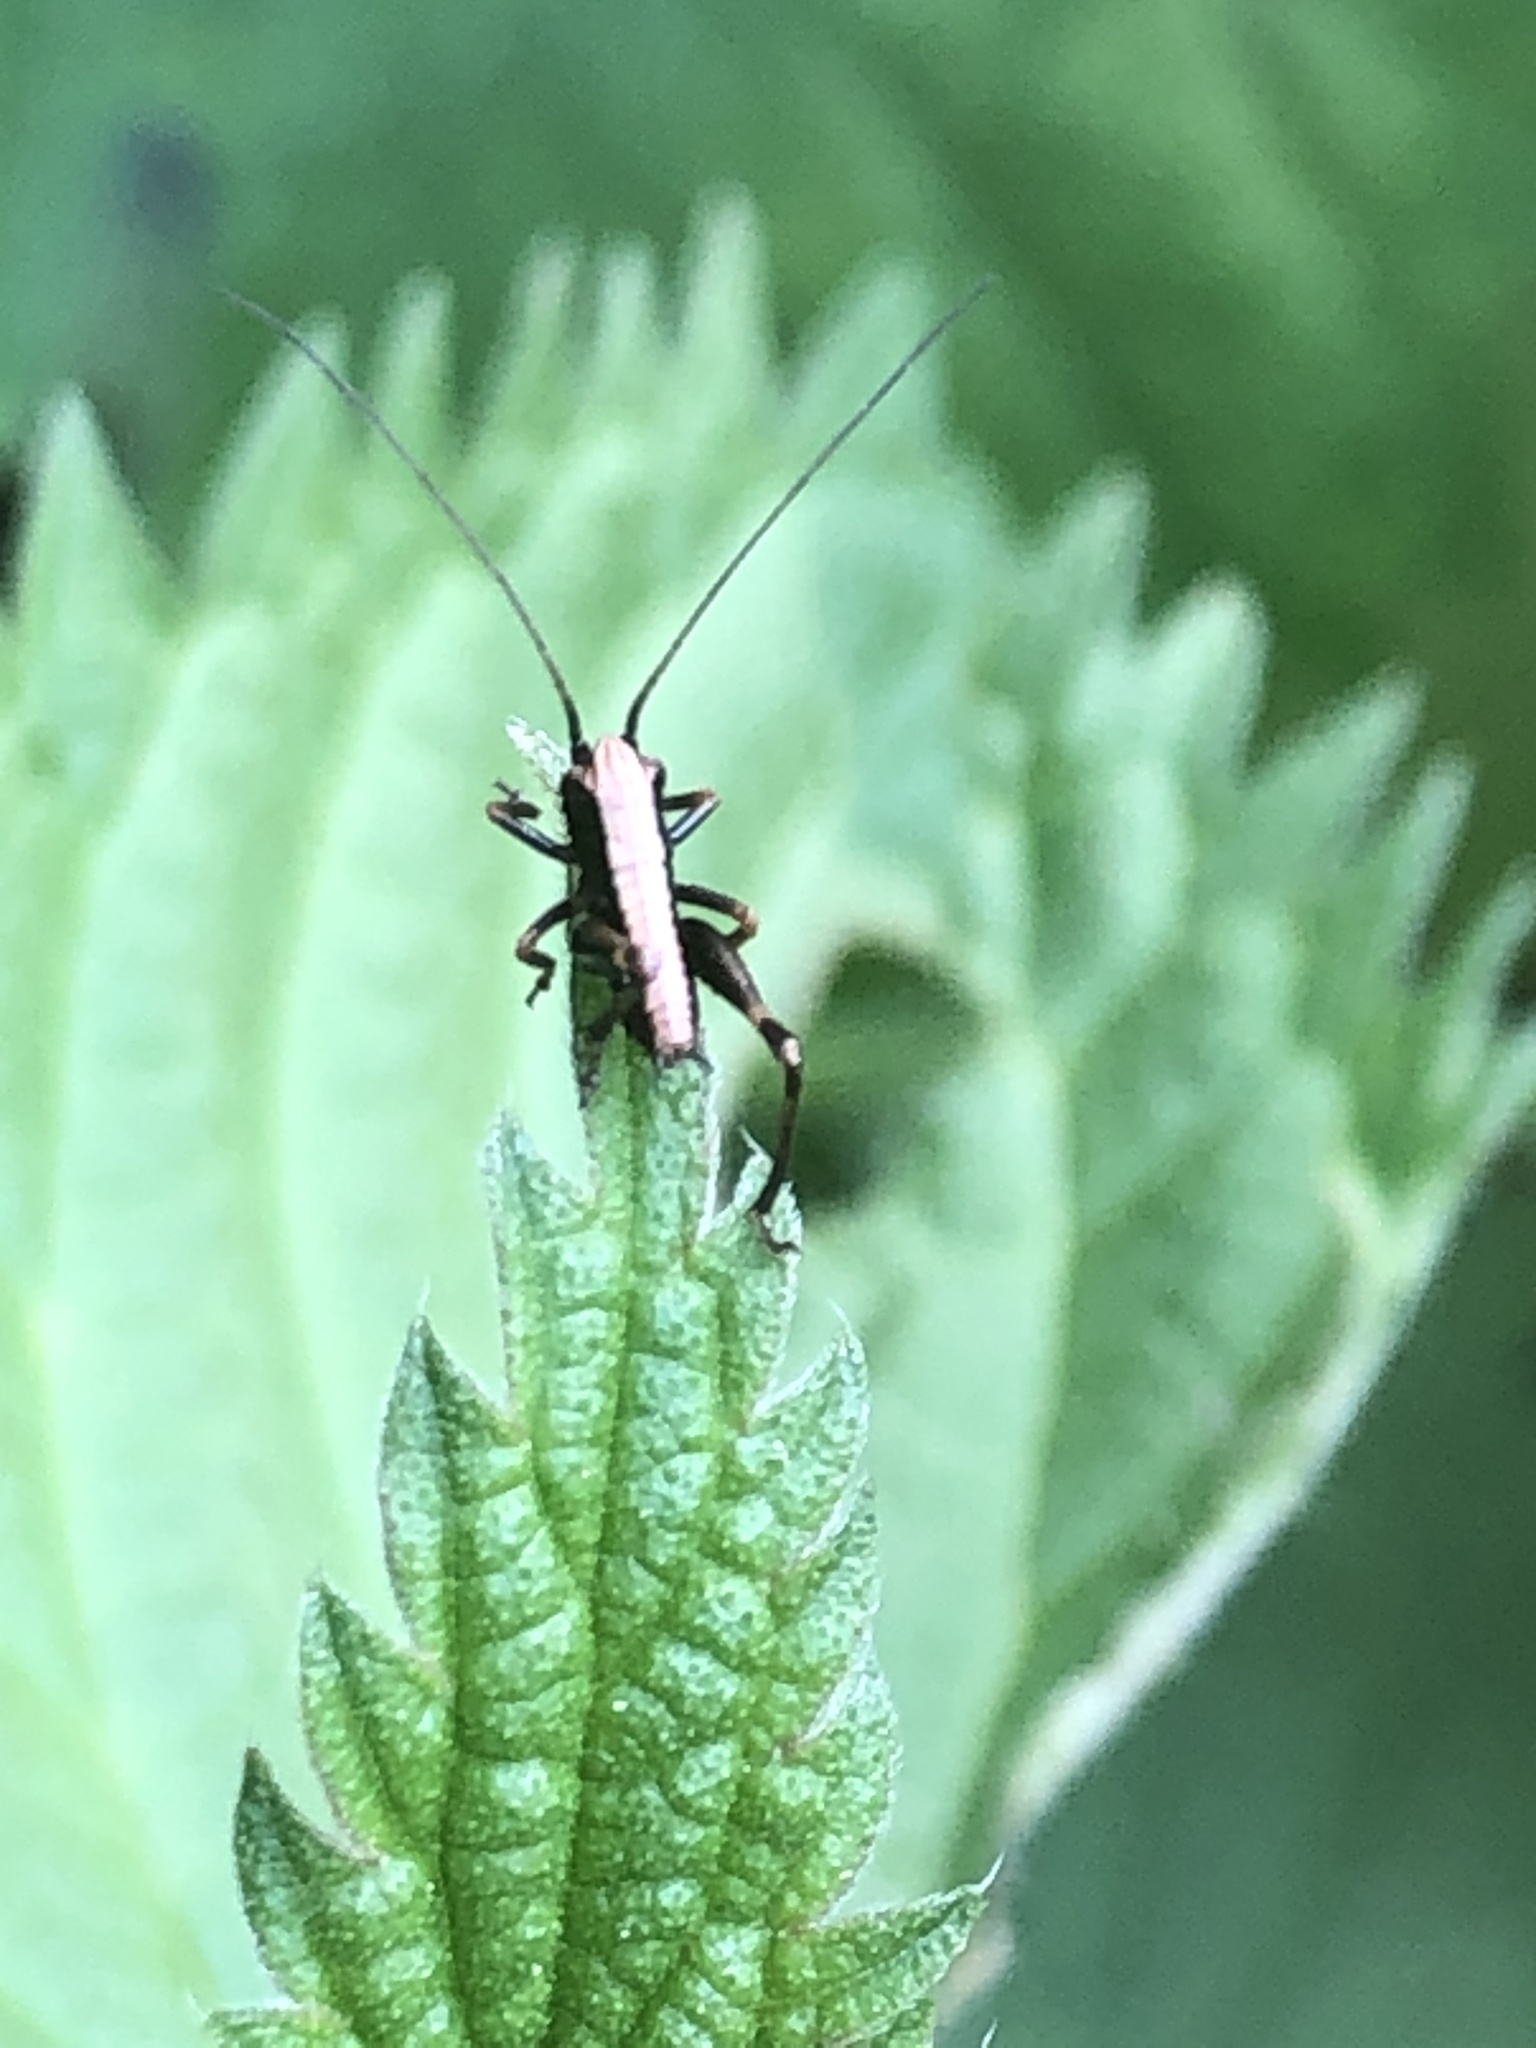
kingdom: Animalia
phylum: Arthropoda
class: Insecta
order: Orthoptera
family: Tettigoniidae
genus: Pholidoptera
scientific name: Pholidoptera griseoaptera
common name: Dark bush-cricket
